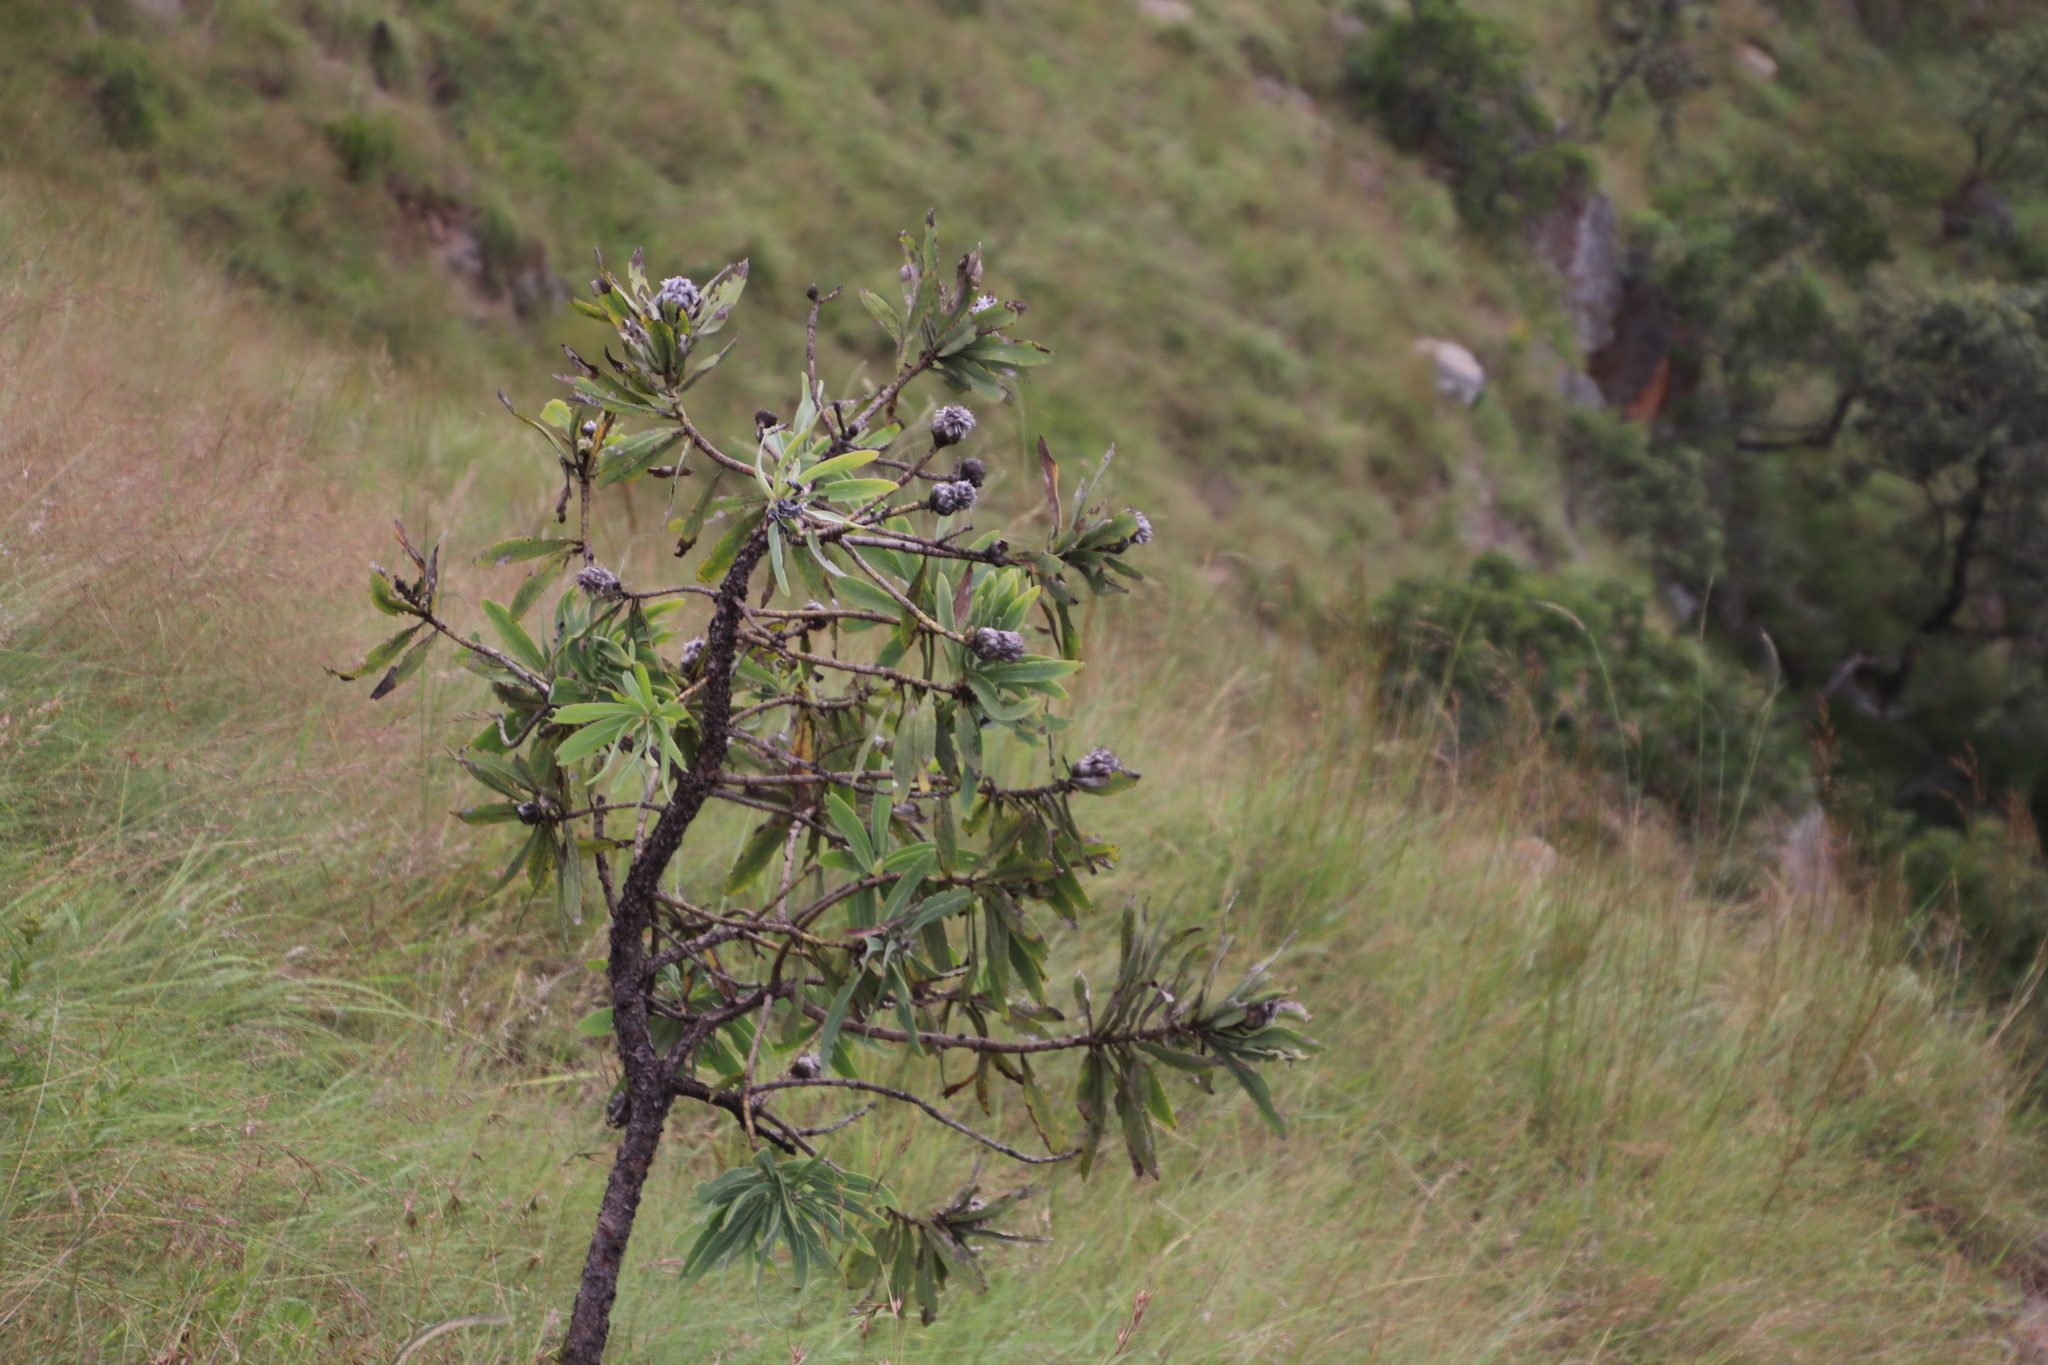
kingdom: Plantae
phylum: Tracheophyta
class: Magnoliopsida
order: Proteales
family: Proteaceae
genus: Protea
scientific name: Protea gaguedi
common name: African protea
